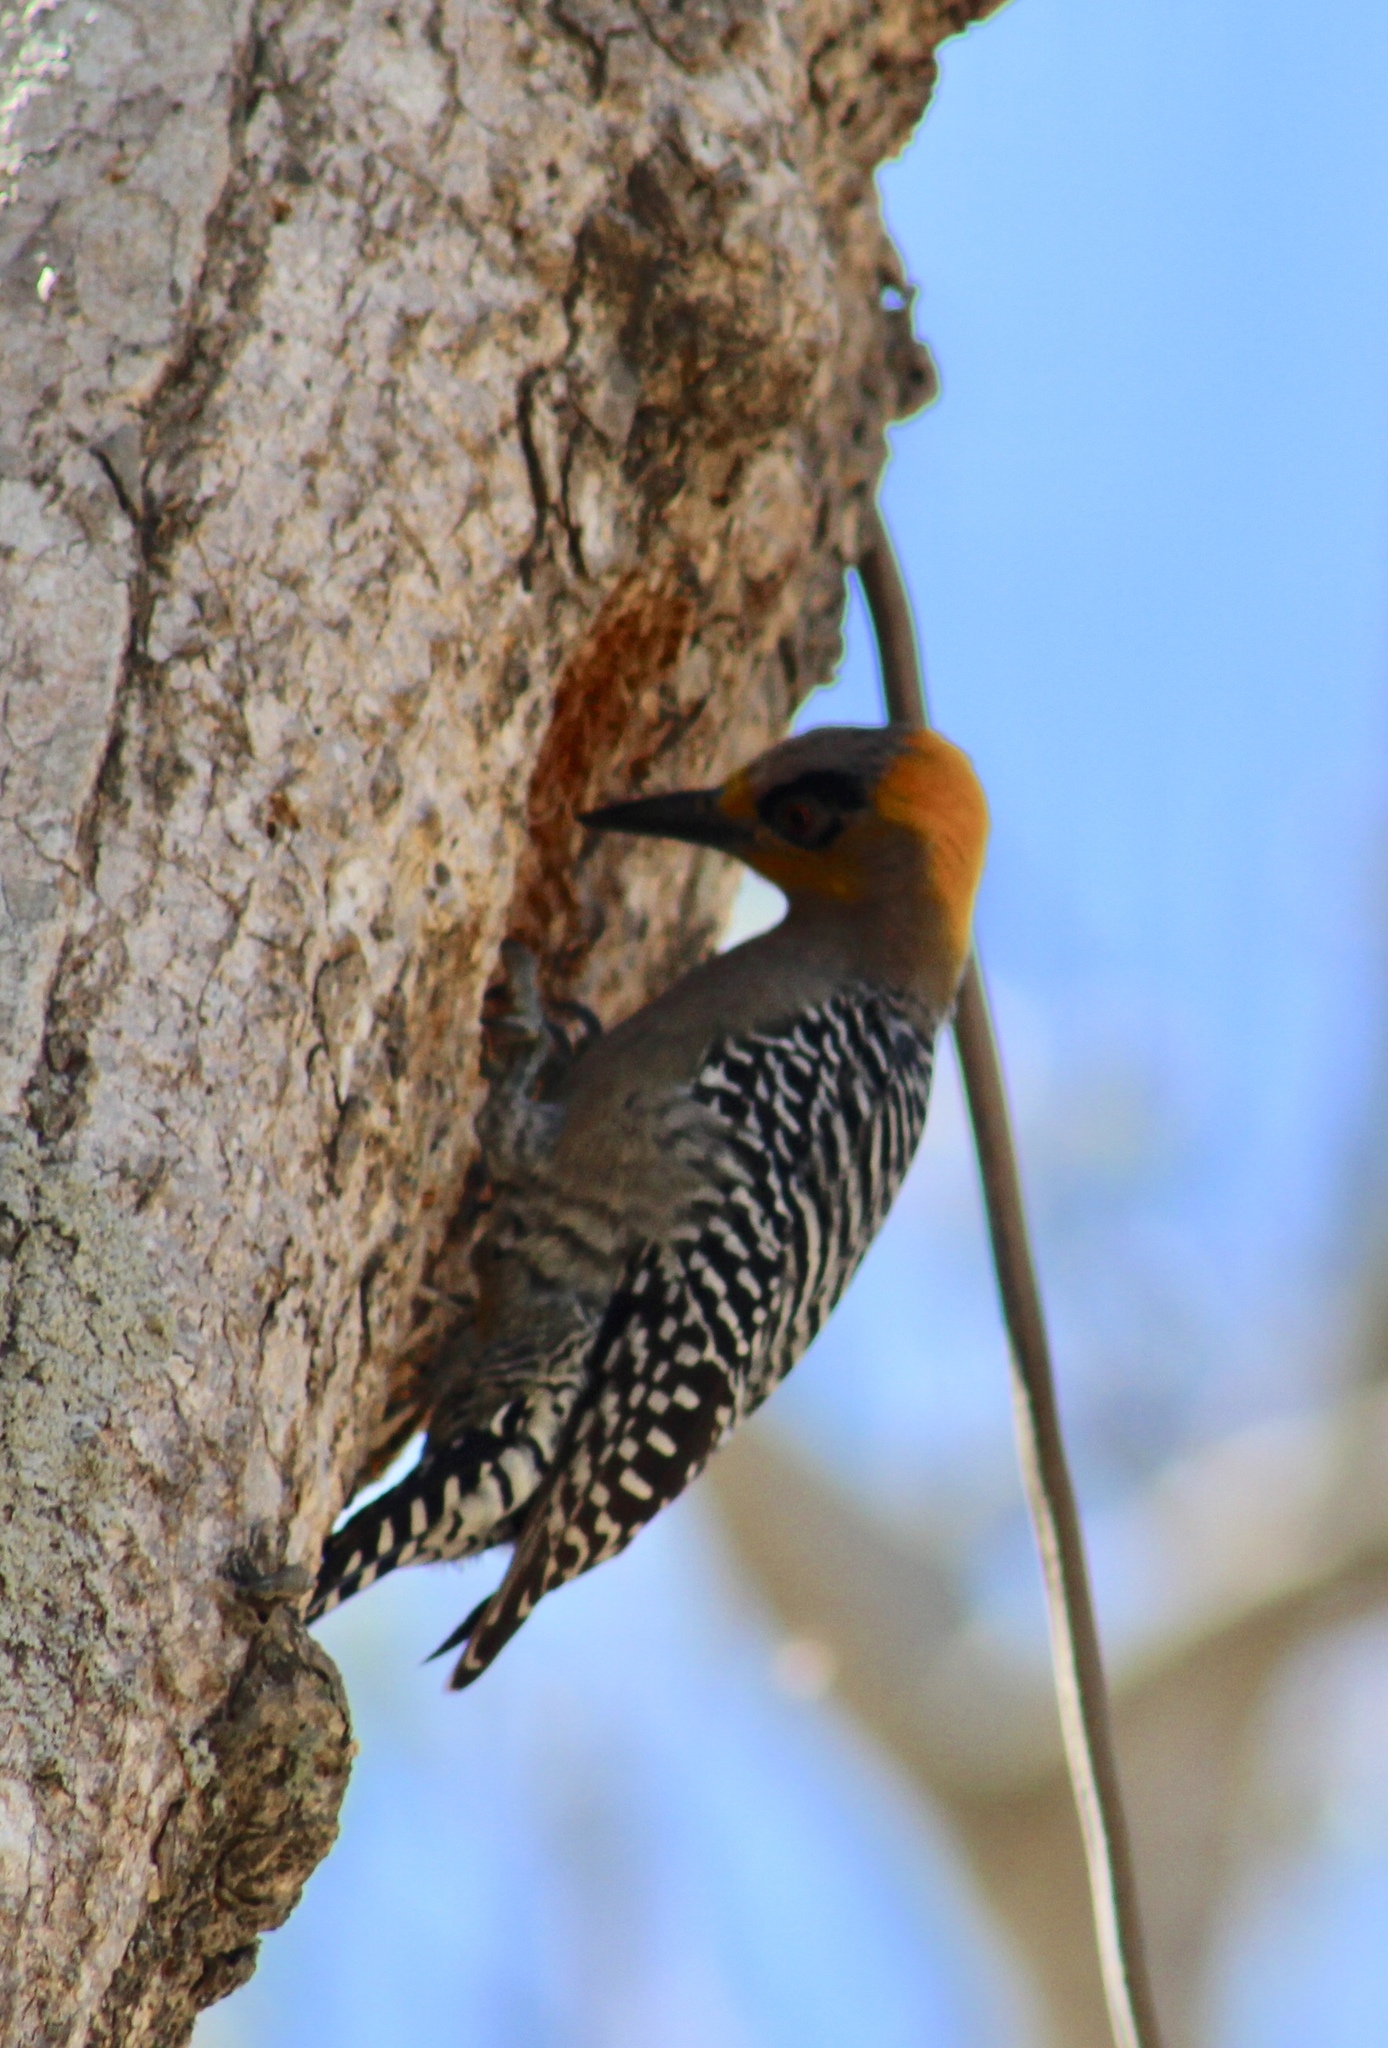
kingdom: Animalia
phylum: Chordata
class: Aves
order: Piciformes
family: Picidae
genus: Melanerpes
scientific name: Melanerpes chrysogenys
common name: Golden-cheeked woodpecker
